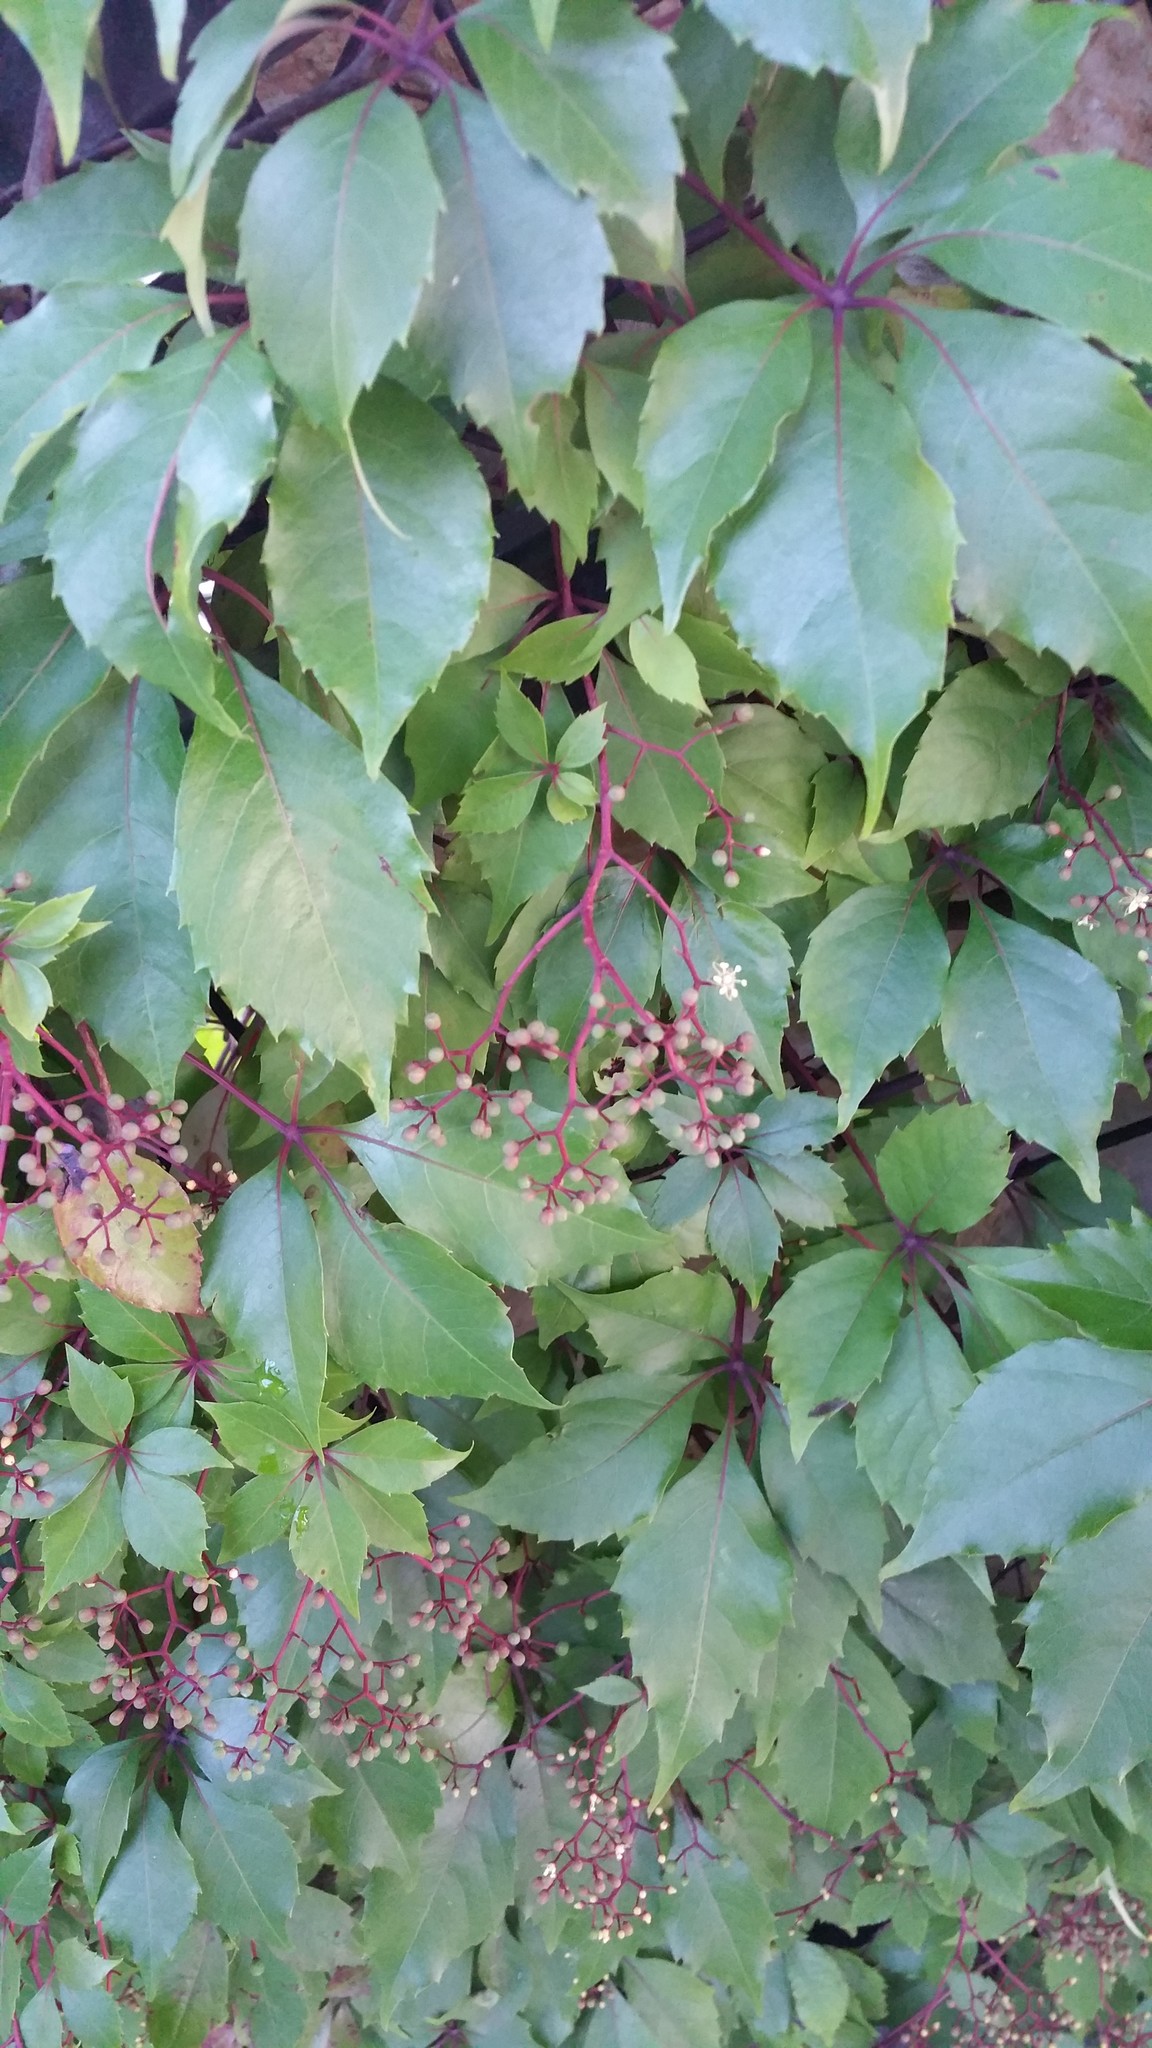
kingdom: Plantae
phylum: Tracheophyta
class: Magnoliopsida
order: Vitales
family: Vitaceae
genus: Parthenocissus
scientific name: Parthenocissus quinquefolia
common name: Virginia-creeper
